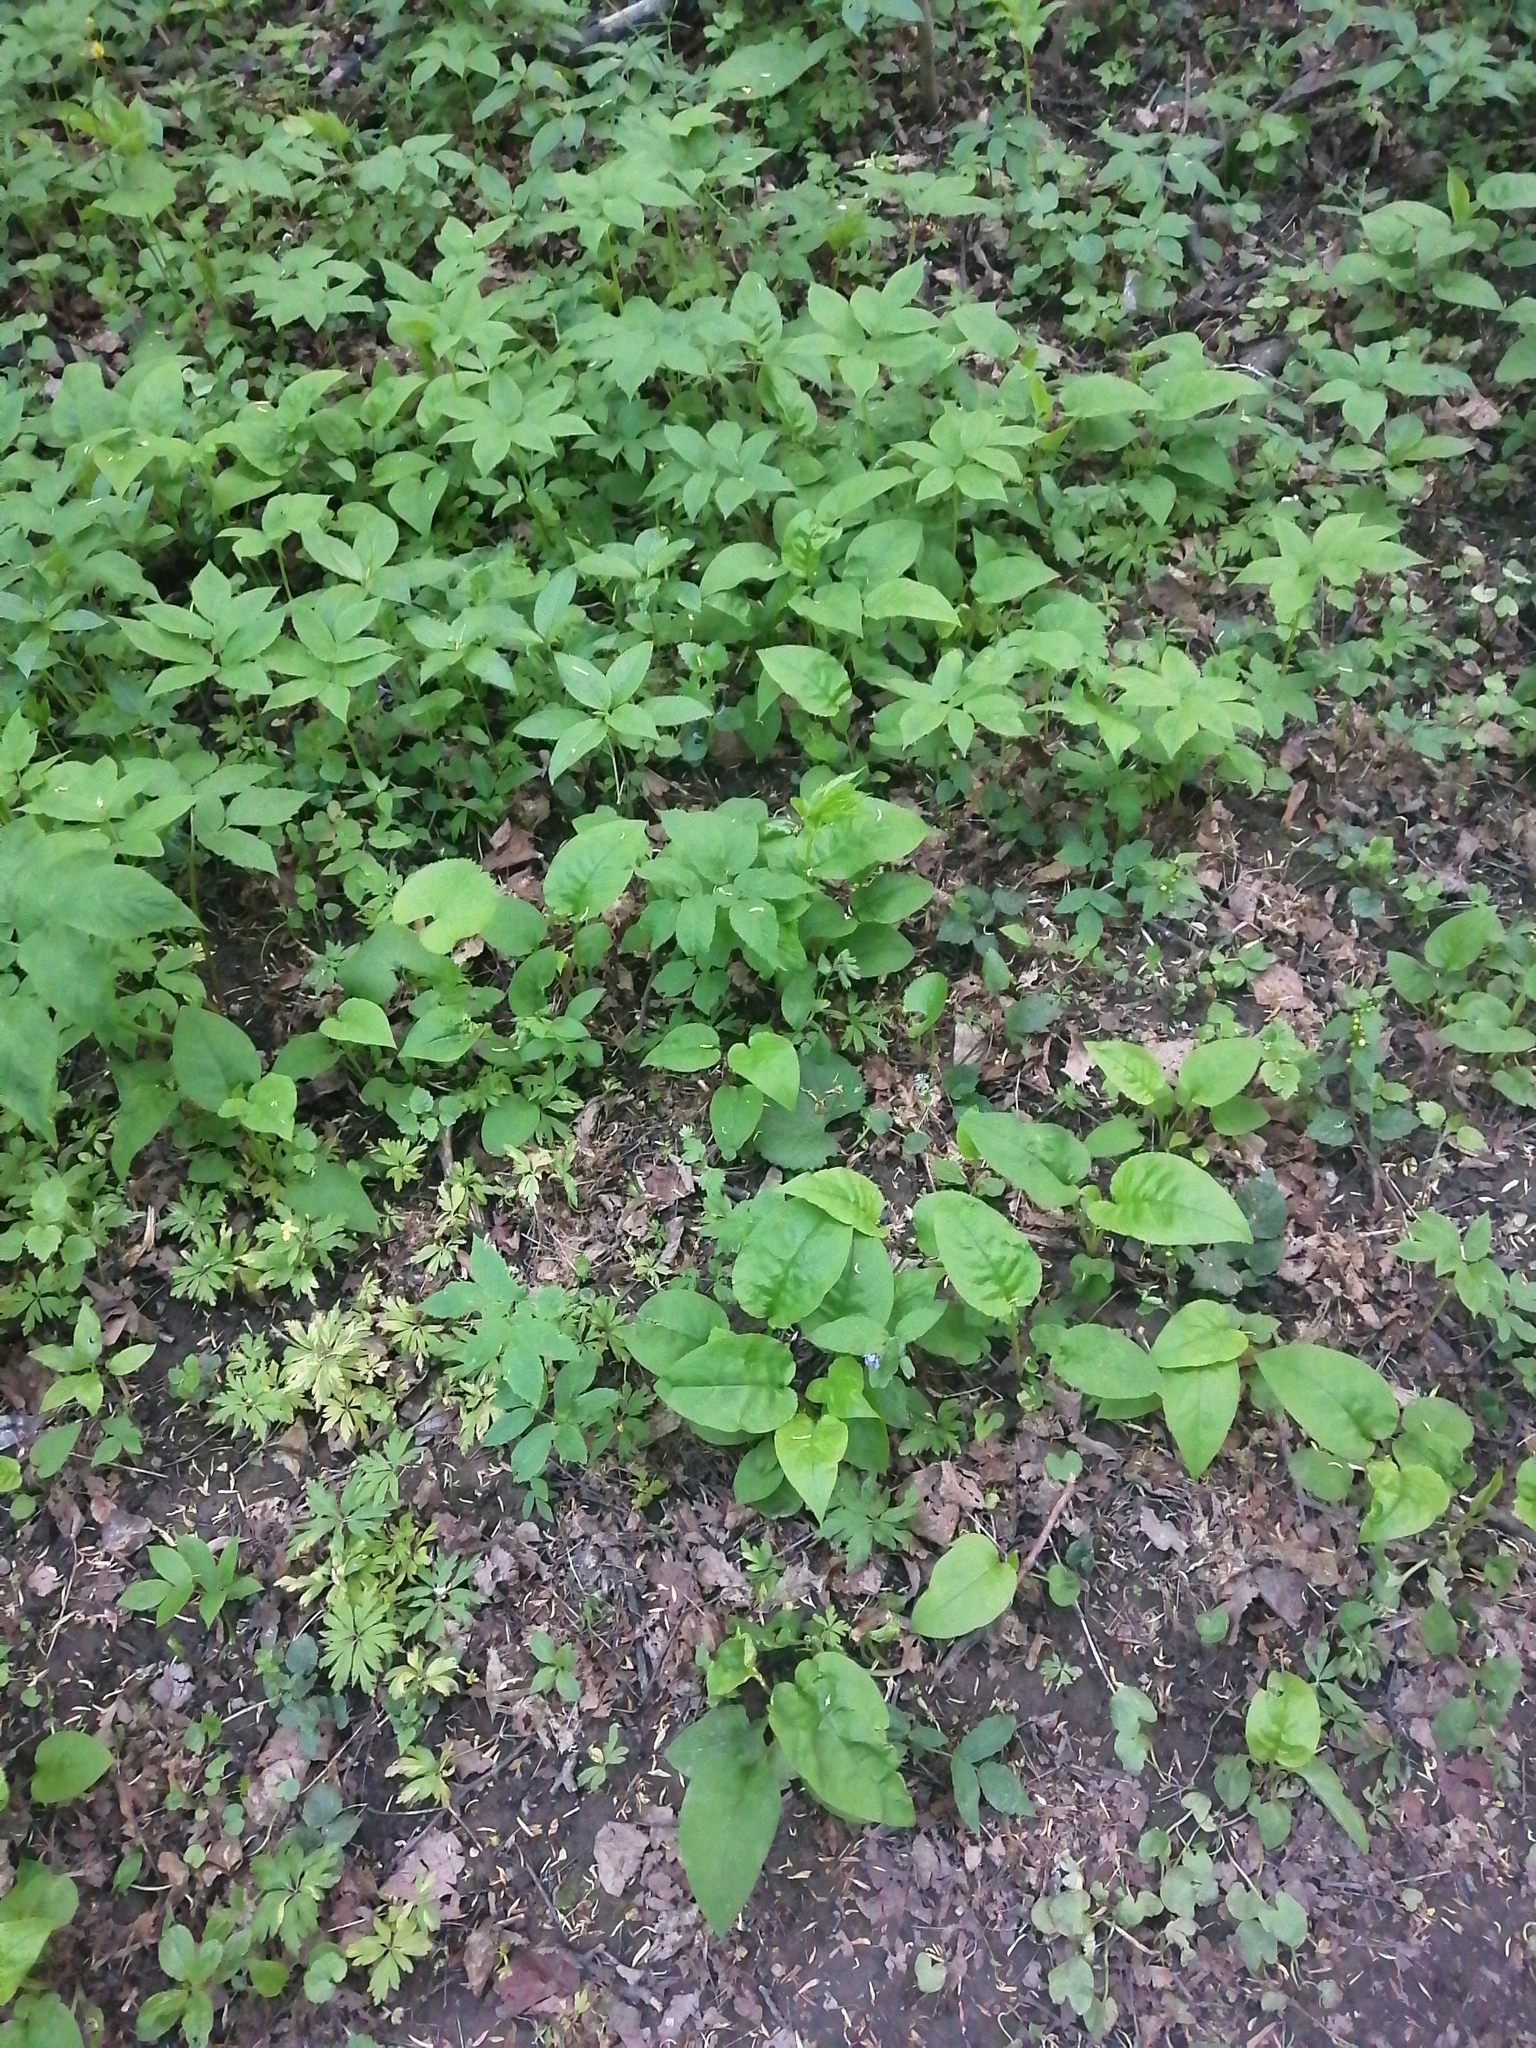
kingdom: Plantae
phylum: Tracheophyta
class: Magnoliopsida
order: Boraginales
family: Boraginaceae
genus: Pulmonaria
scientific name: Pulmonaria obscura
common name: Suffolk lungwort
